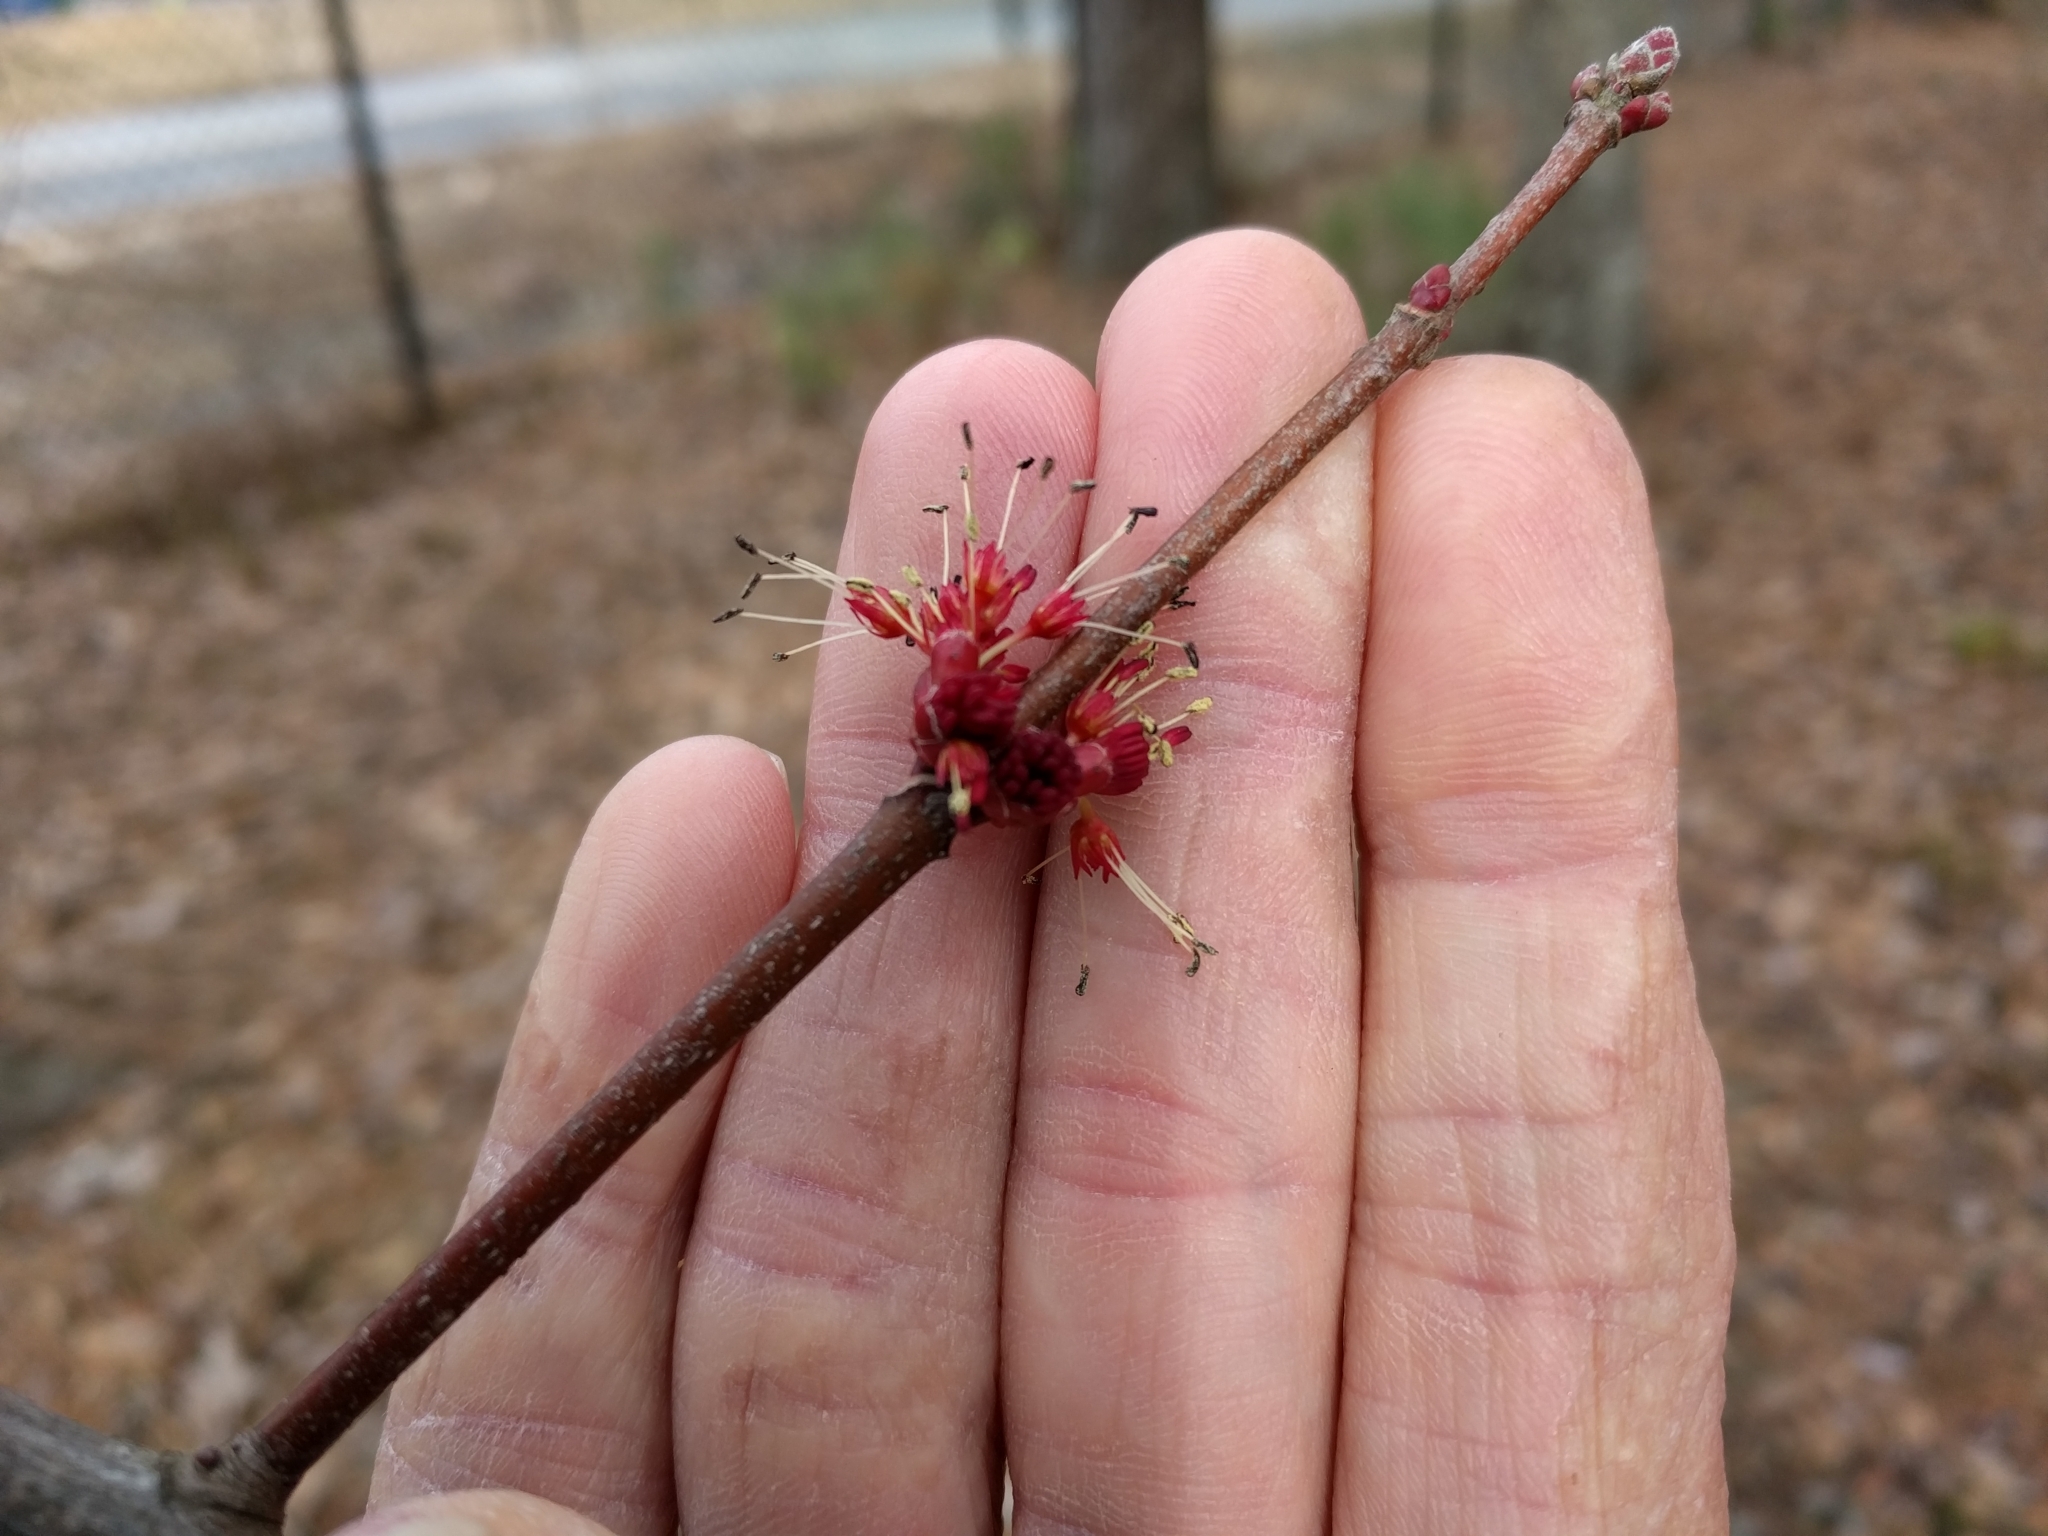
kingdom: Plantae
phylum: Tracheophyta
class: Magnoliopsida
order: Sapindales
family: Sapindaceae
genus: Acer
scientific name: Acer rubrum
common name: Red maple
